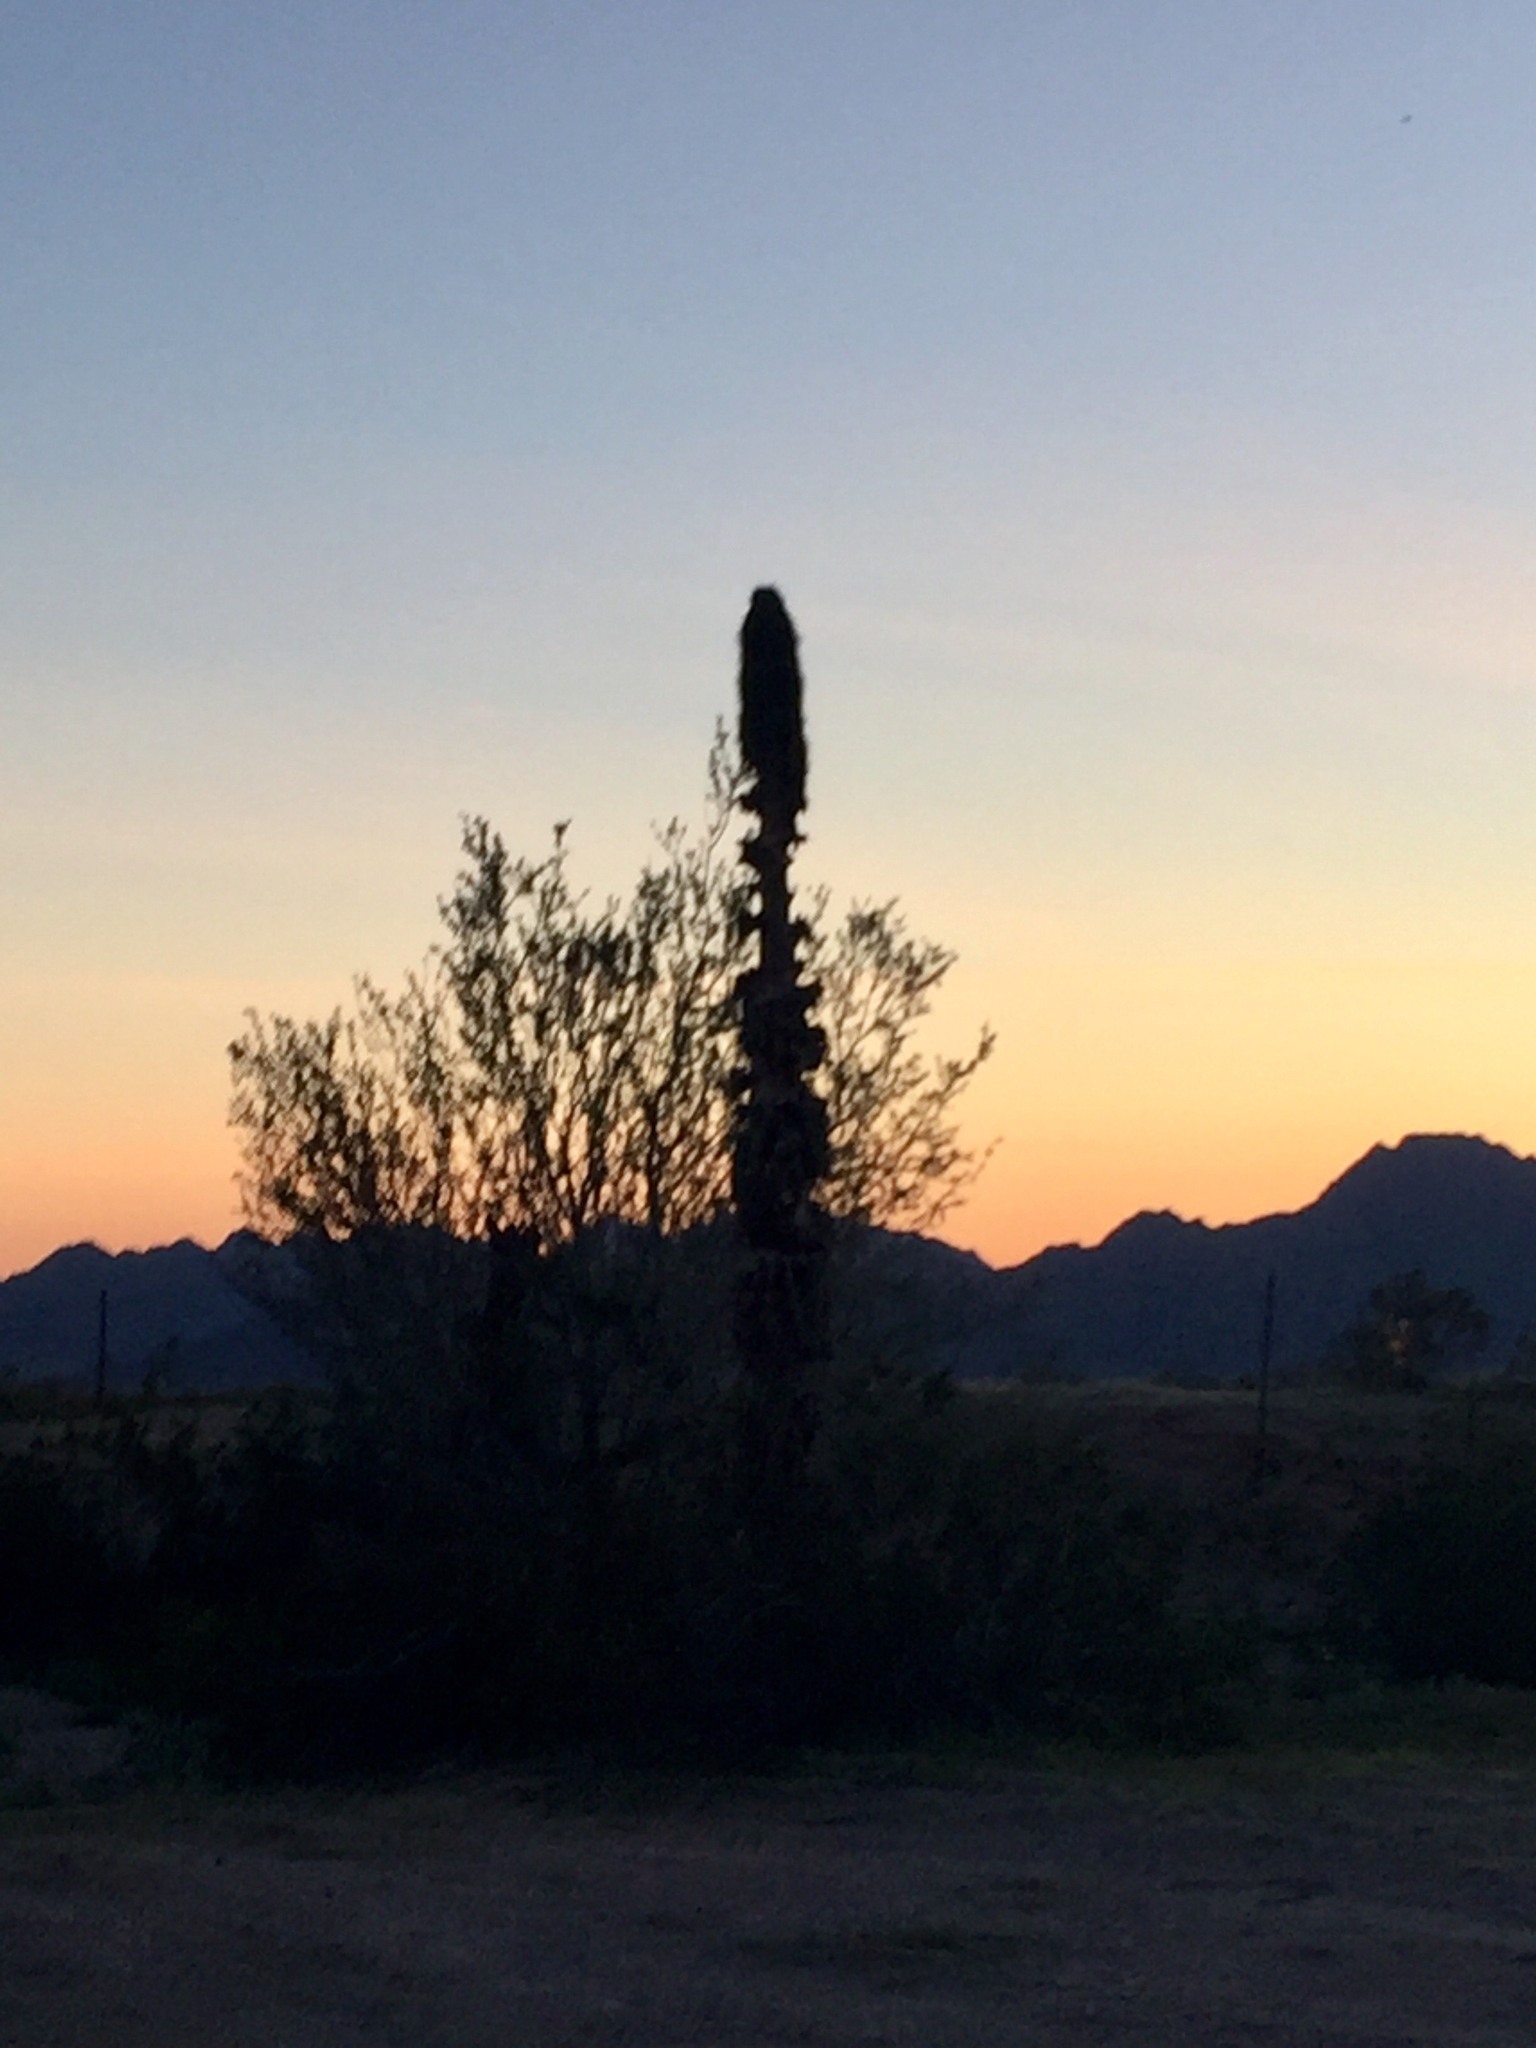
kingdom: Plantae
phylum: Tracheophyta
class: Magnoliopsida
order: Caryophyllales
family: Cactaceae
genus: Carnegiea
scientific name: Carnegiea gigantea
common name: Saguaro
